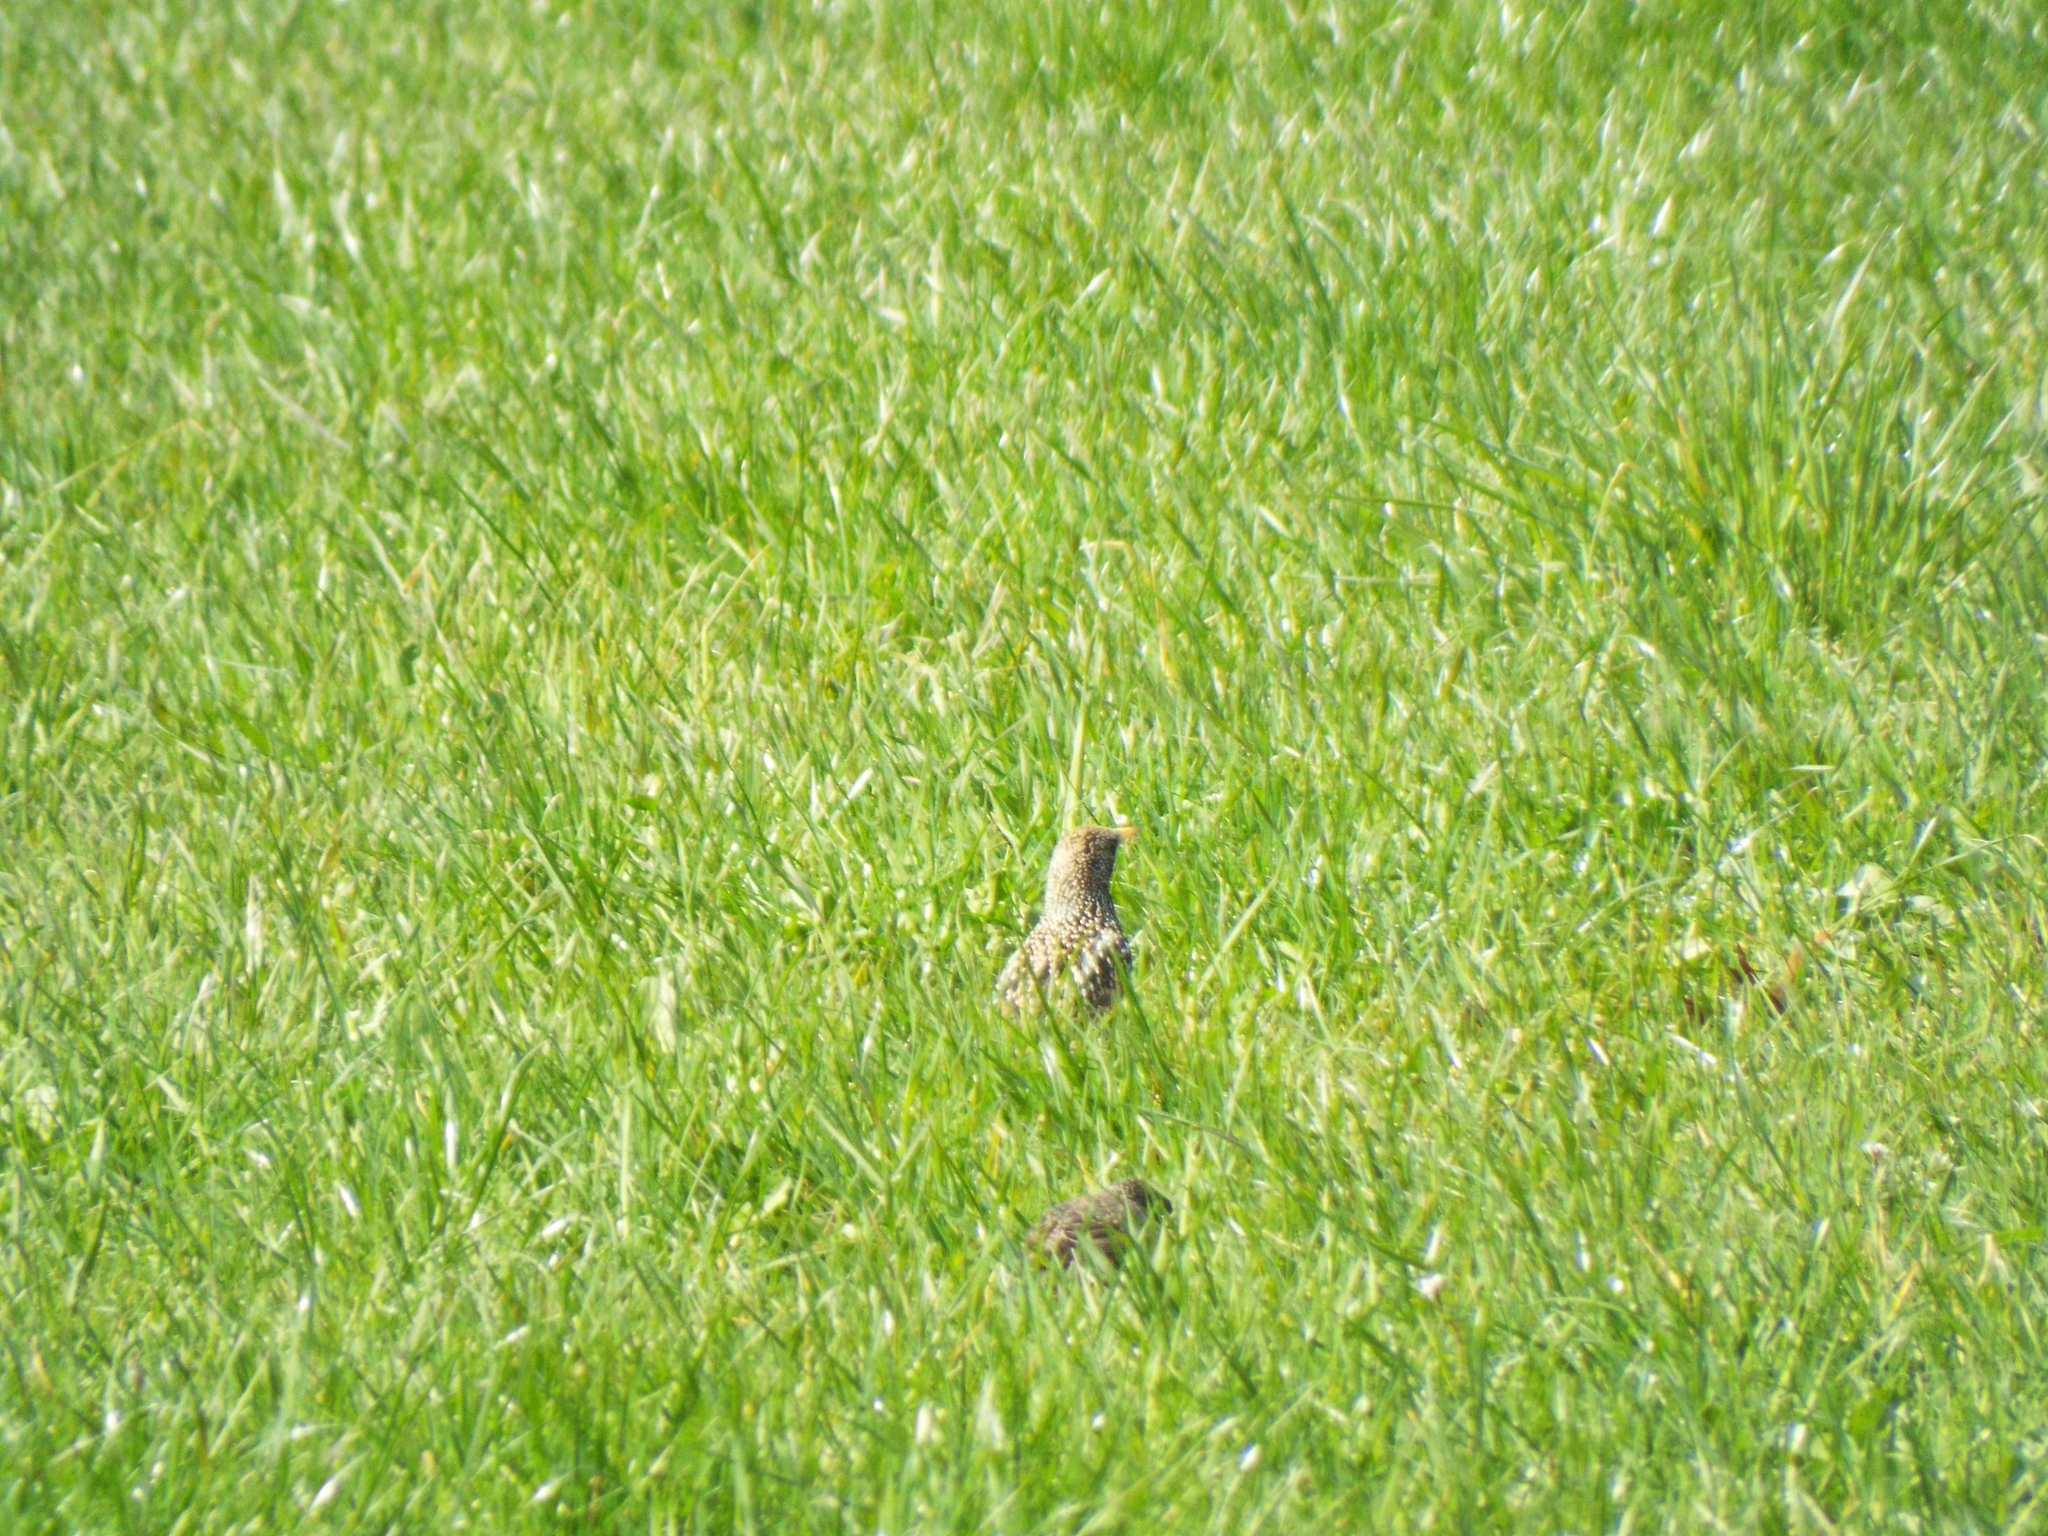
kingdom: Animalia
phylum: Chordata
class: Aves
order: Passeriformes
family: Sturnidae
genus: Sturnus
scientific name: Sturnus vulgaris
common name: Common starling
